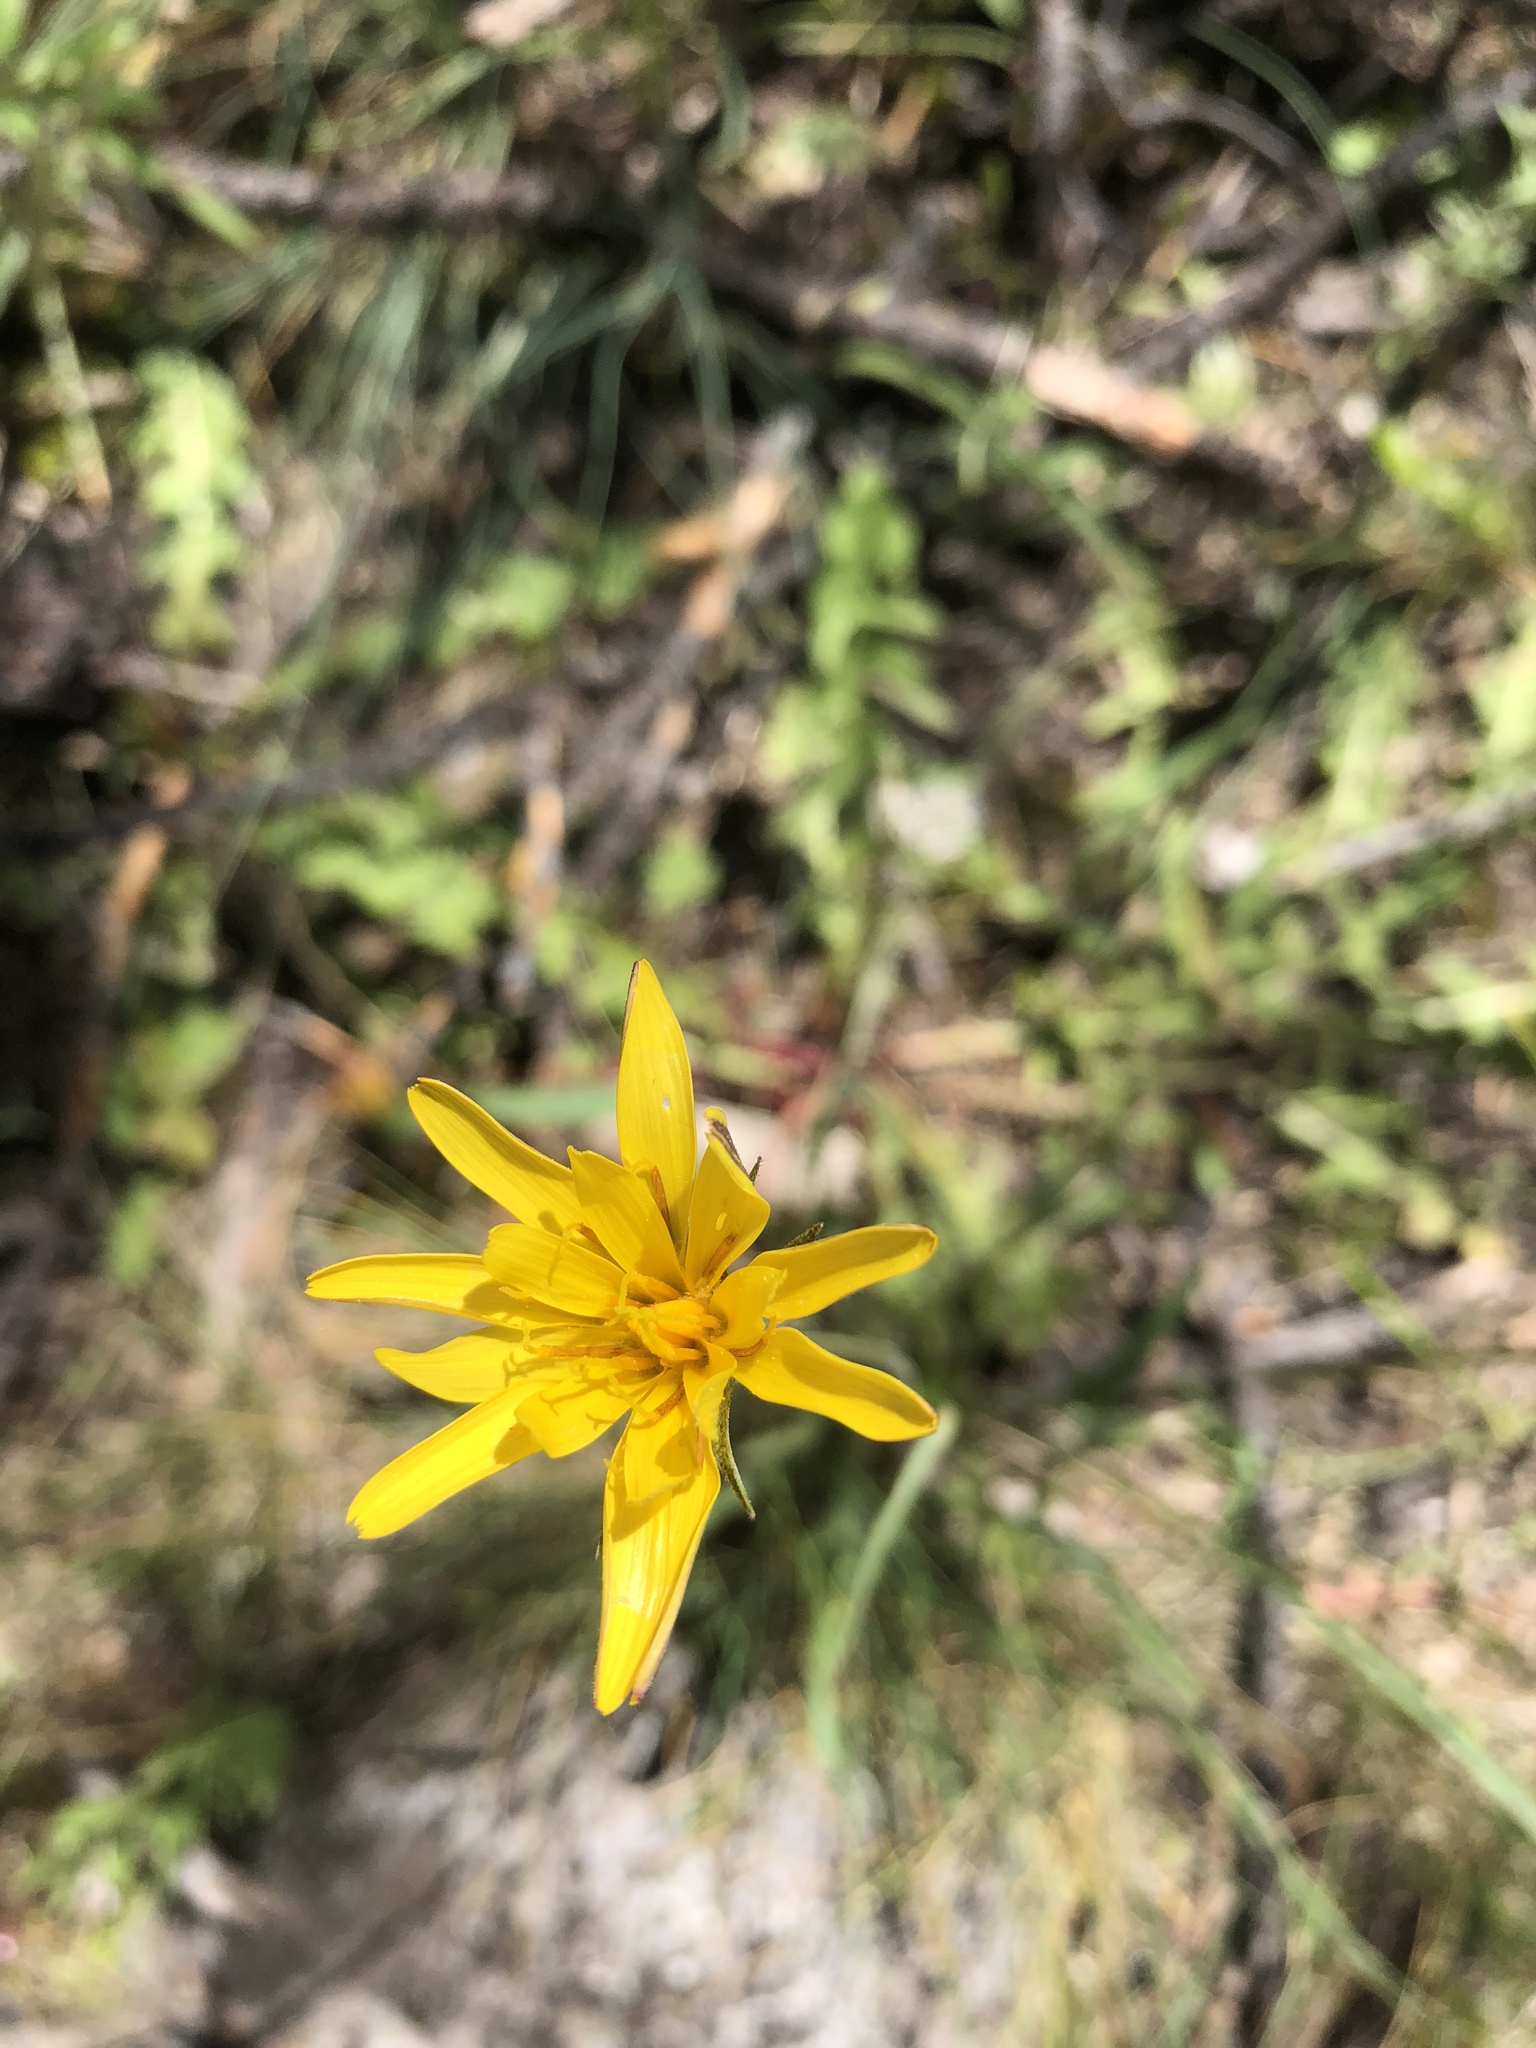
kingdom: Plantae
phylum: Tracheophyta
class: Magnoliopsida
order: Asterales
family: Asteraceae
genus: Tragopogon
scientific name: Tragopogon dubius
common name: Yellow salsify
